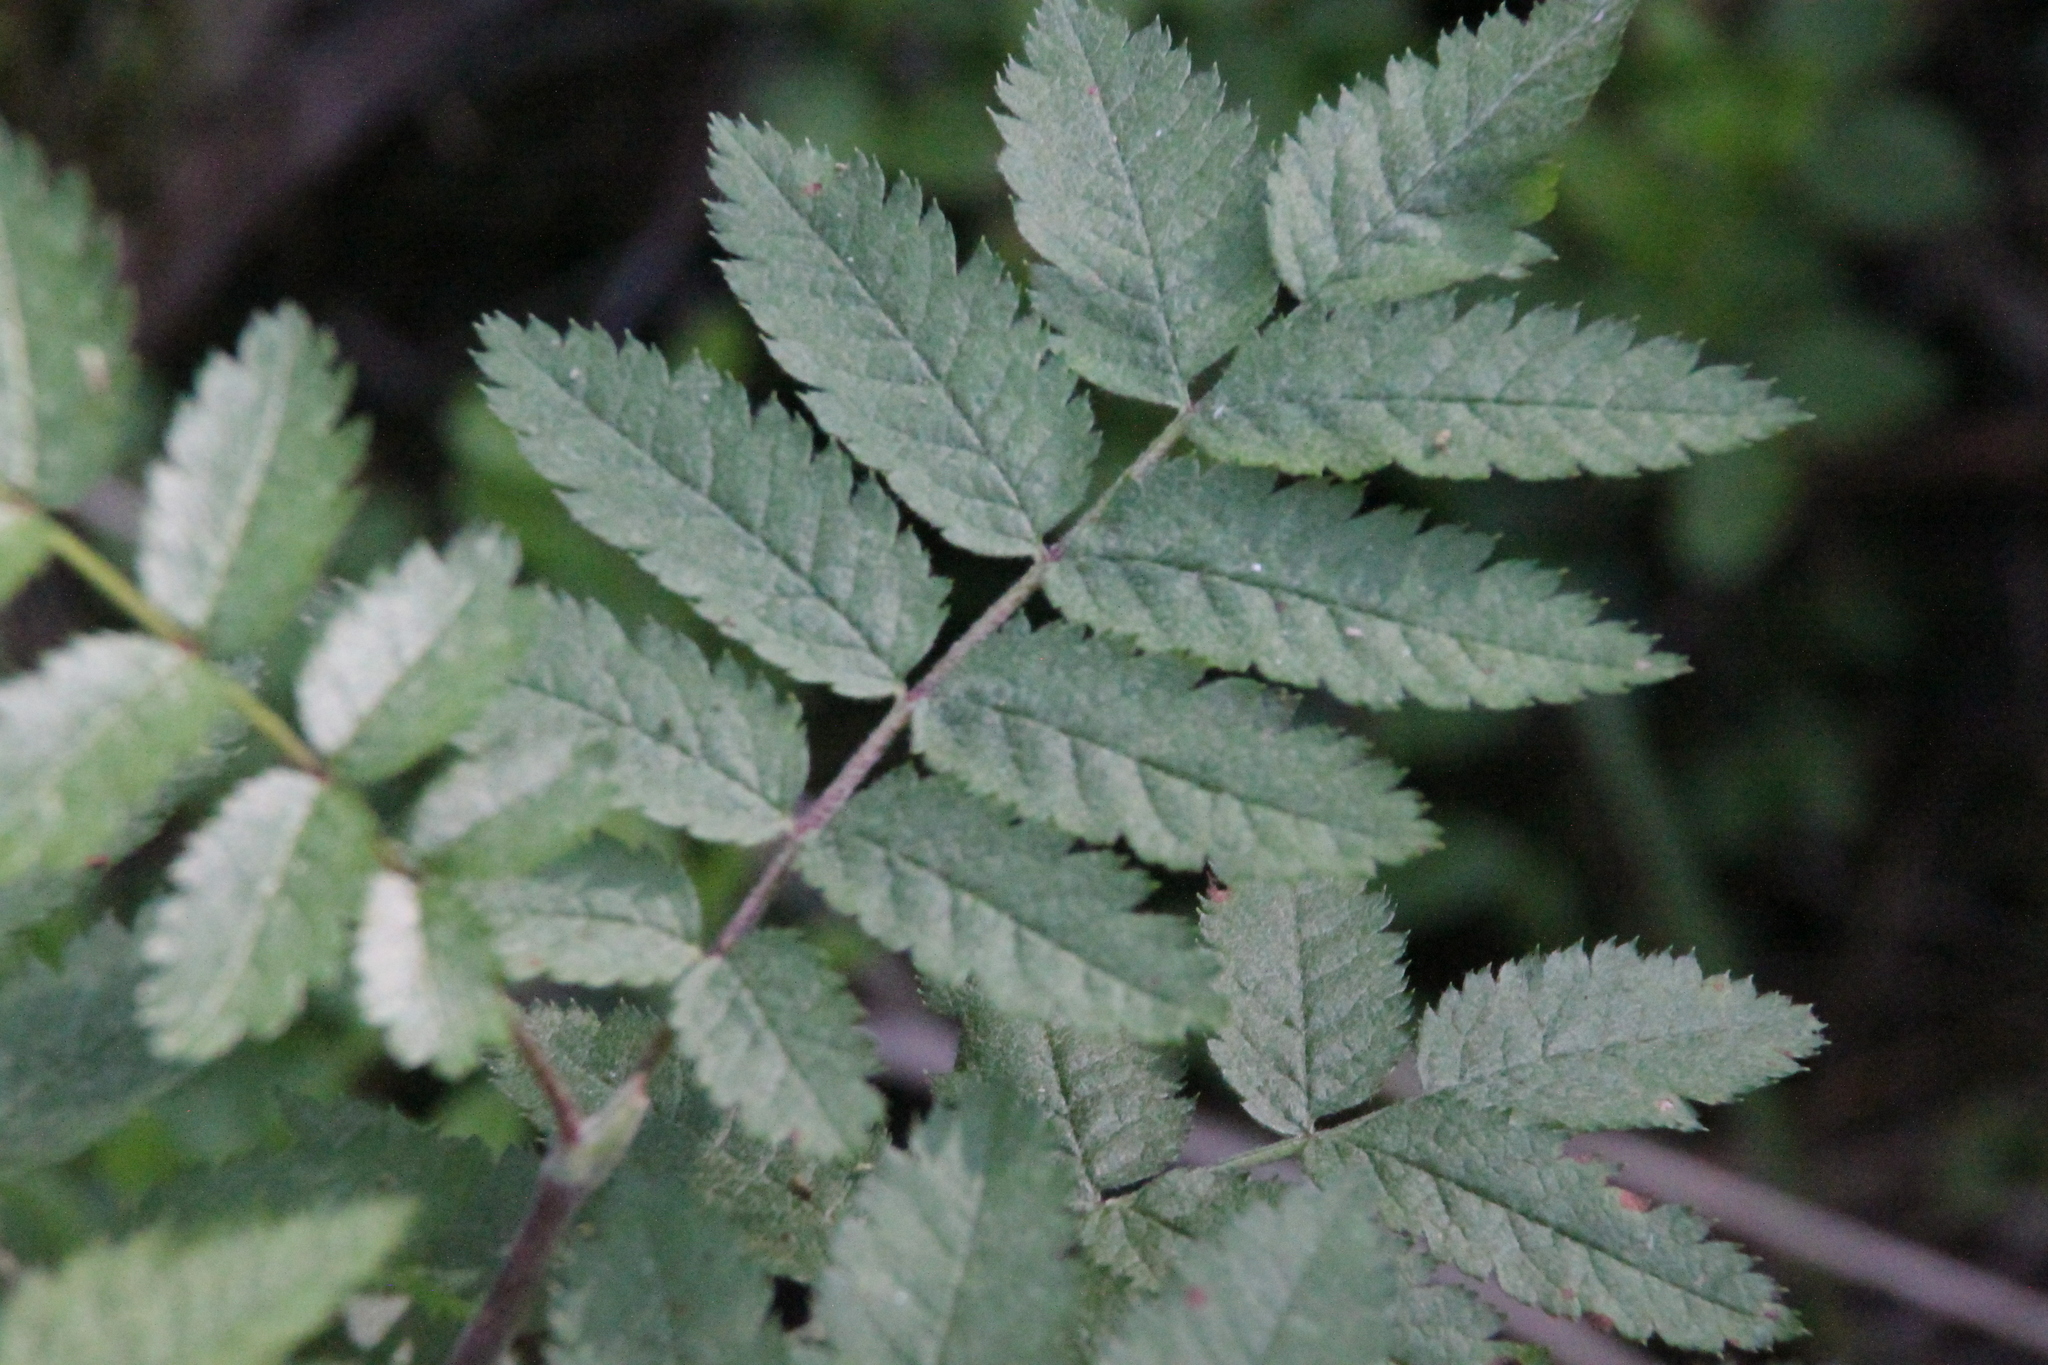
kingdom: Plantae
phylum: Tracheophyta
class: Magnoliopsida
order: Rosales
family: Rosaceae
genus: Sorbus
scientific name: Sorbus aucuparia
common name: Rowan
